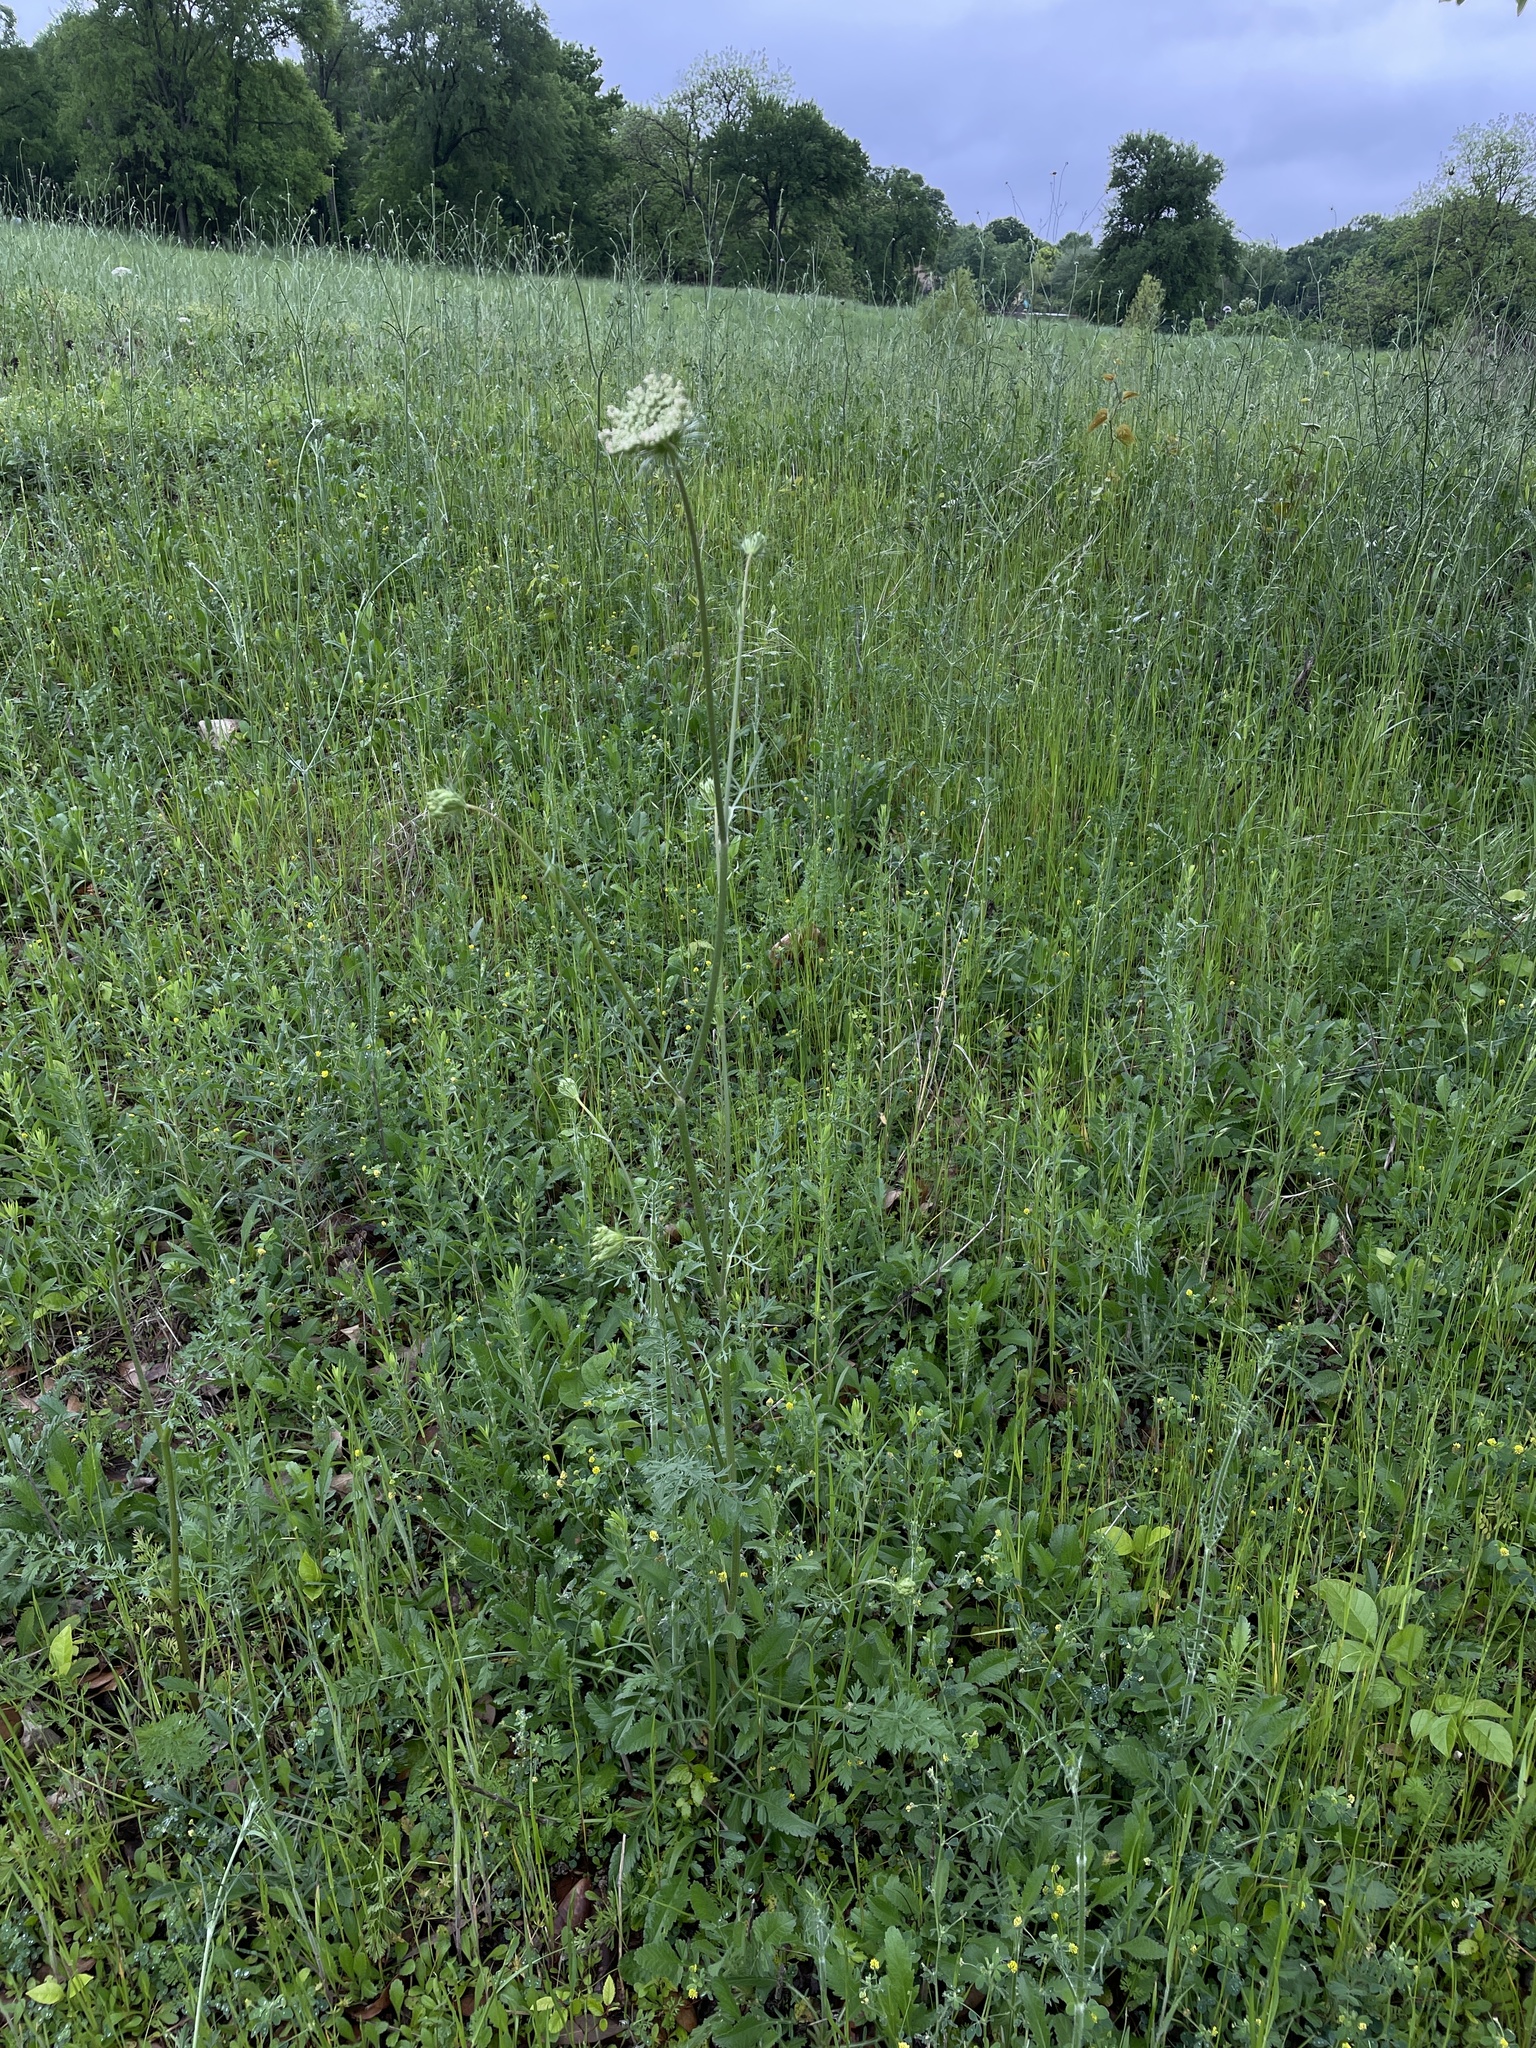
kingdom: Plantae
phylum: Tracheophyta
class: Magnoliopsida
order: Apiales
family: Apiaceae
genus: Daucus
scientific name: Daucus carota
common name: Wild carrot
